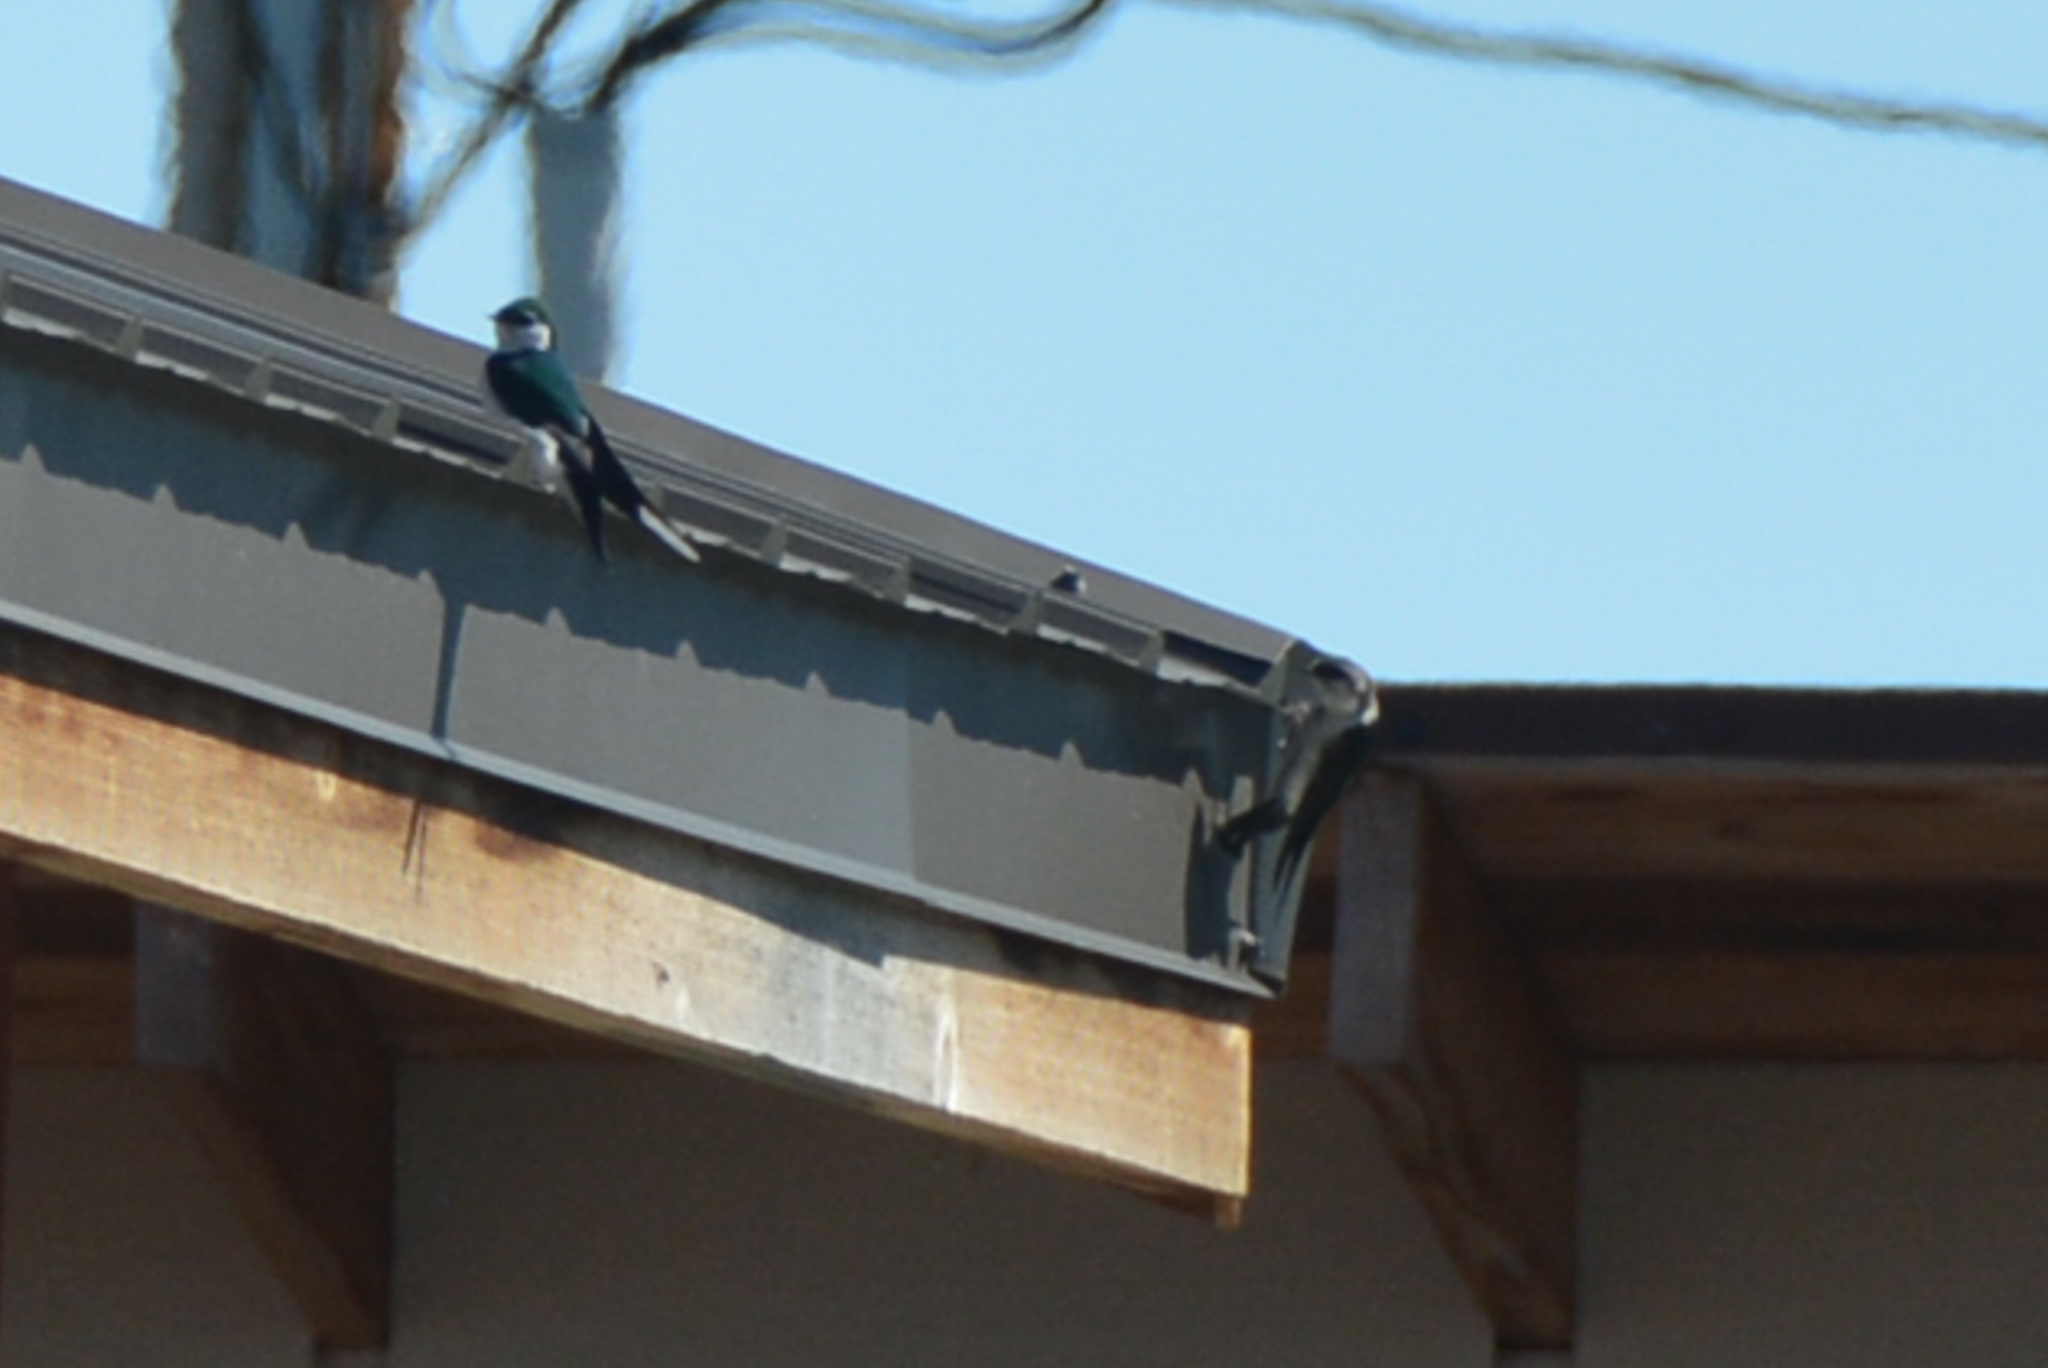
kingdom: Animalia
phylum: Chordata
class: Aves
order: Passeriformes
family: Hirundinidae
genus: Tachycineta
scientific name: Tachycineta thalassina
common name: Violet-green swallow
